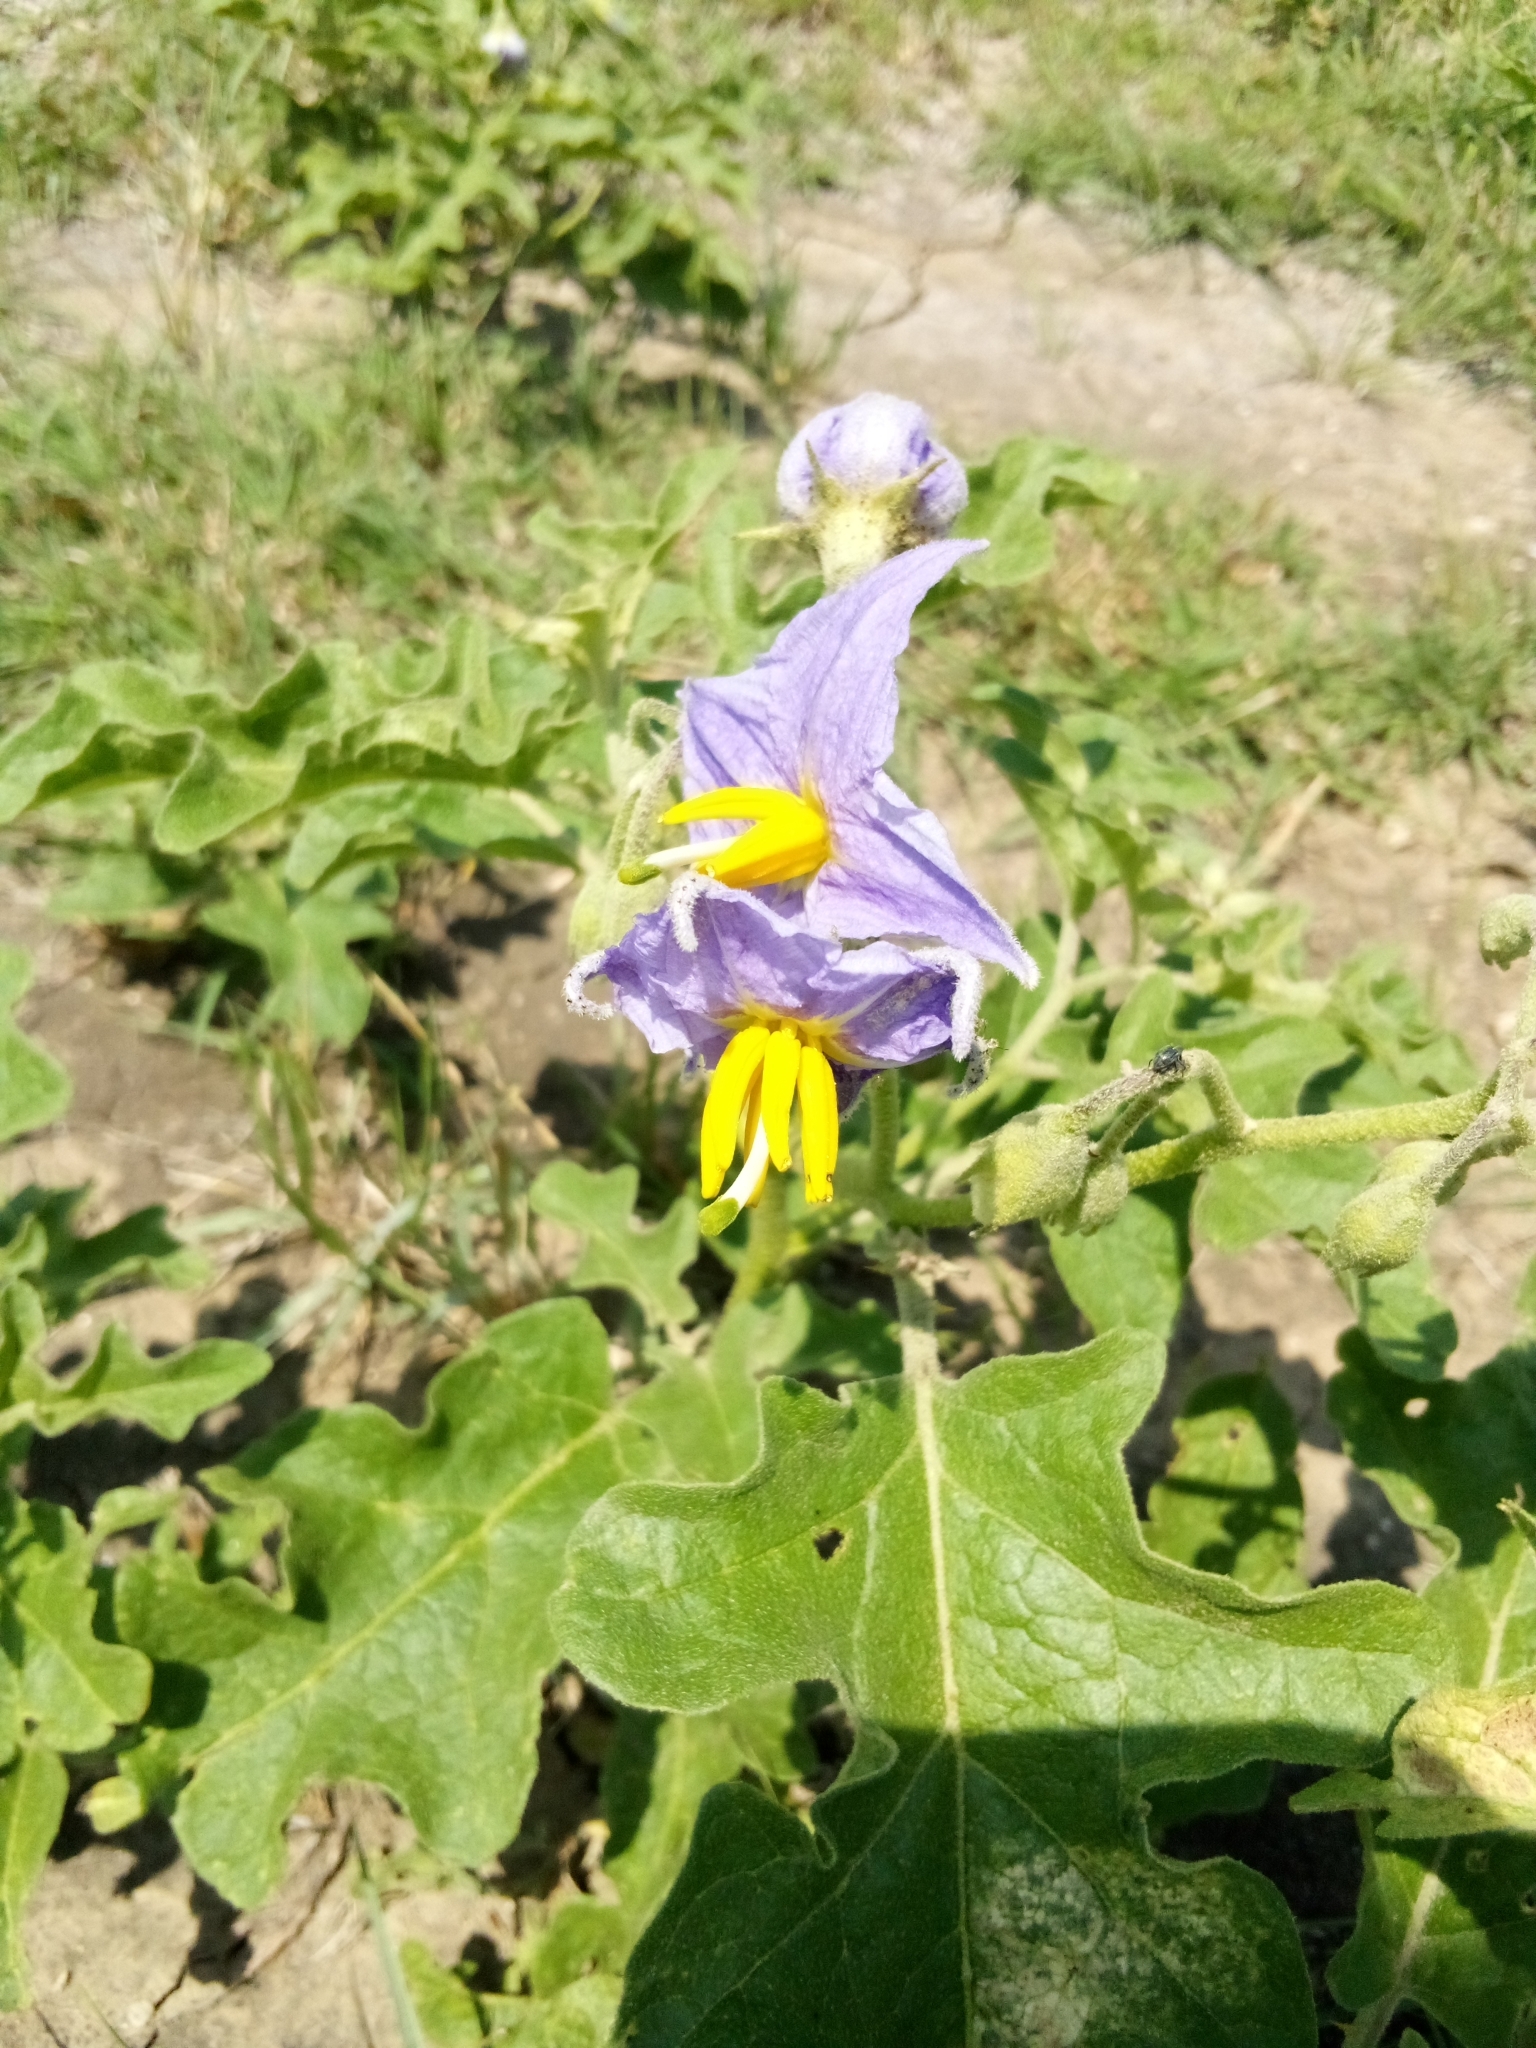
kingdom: Plantae
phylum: Tracheophyta
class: Magnoliopsida
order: Solanales
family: Solanaceae
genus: Solanum
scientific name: Solanum dimidiatum
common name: Carolina horse-nettle
